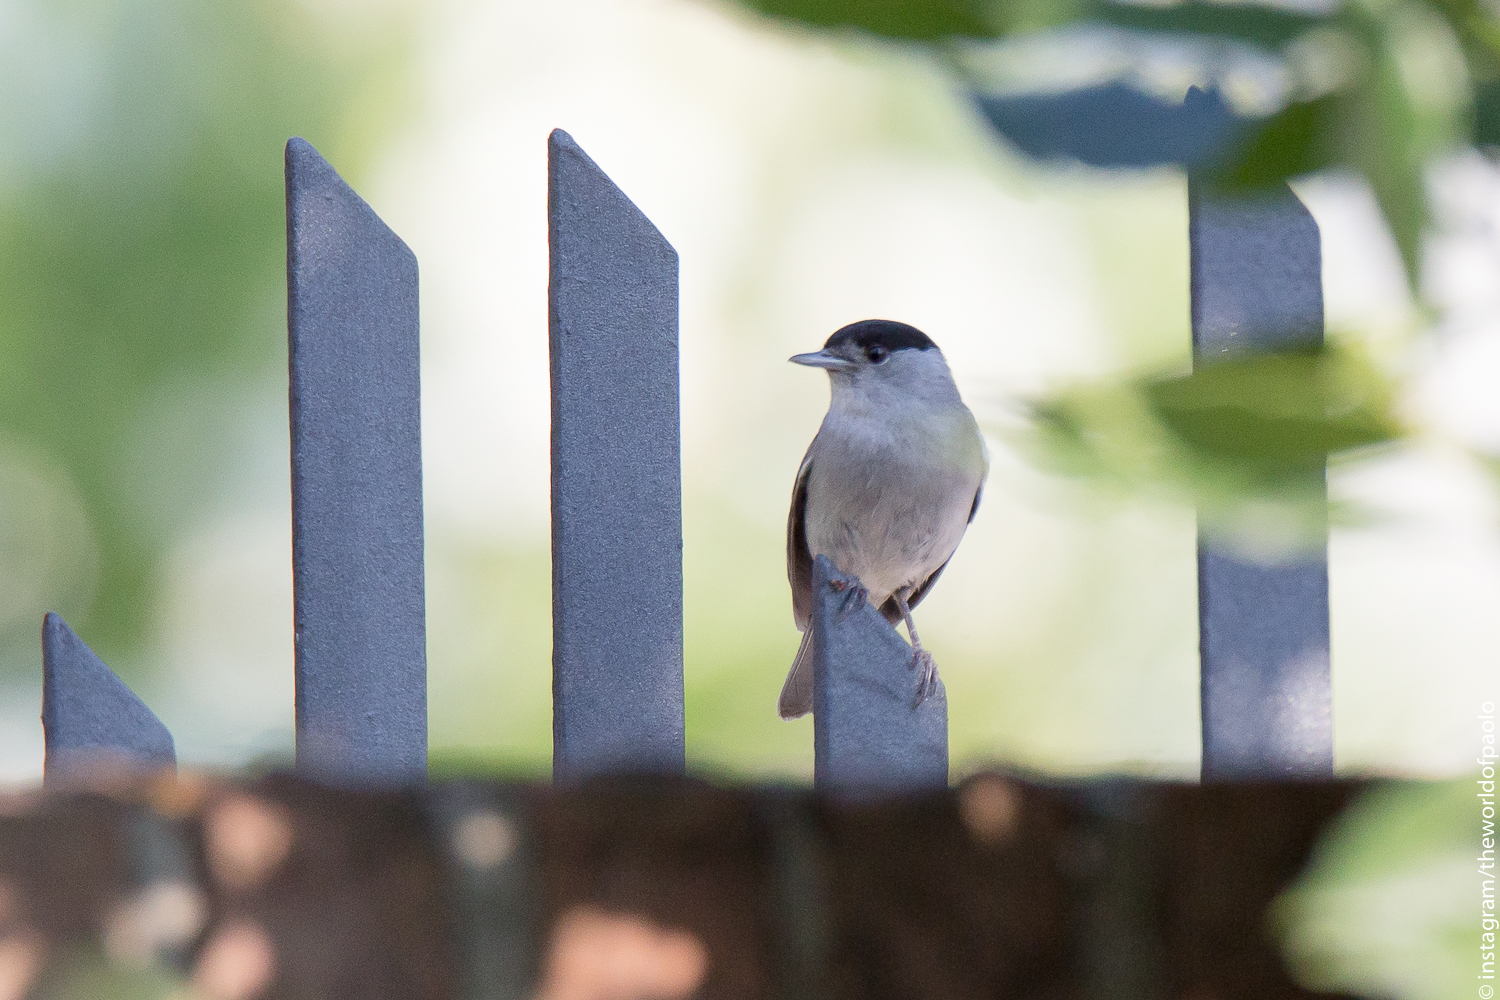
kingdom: Animalia
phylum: Chordata
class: Aves
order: Passeriformes
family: Sylviidae
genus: Sylvia
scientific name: Sylvia atricapilla
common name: Eurasian blackcap
